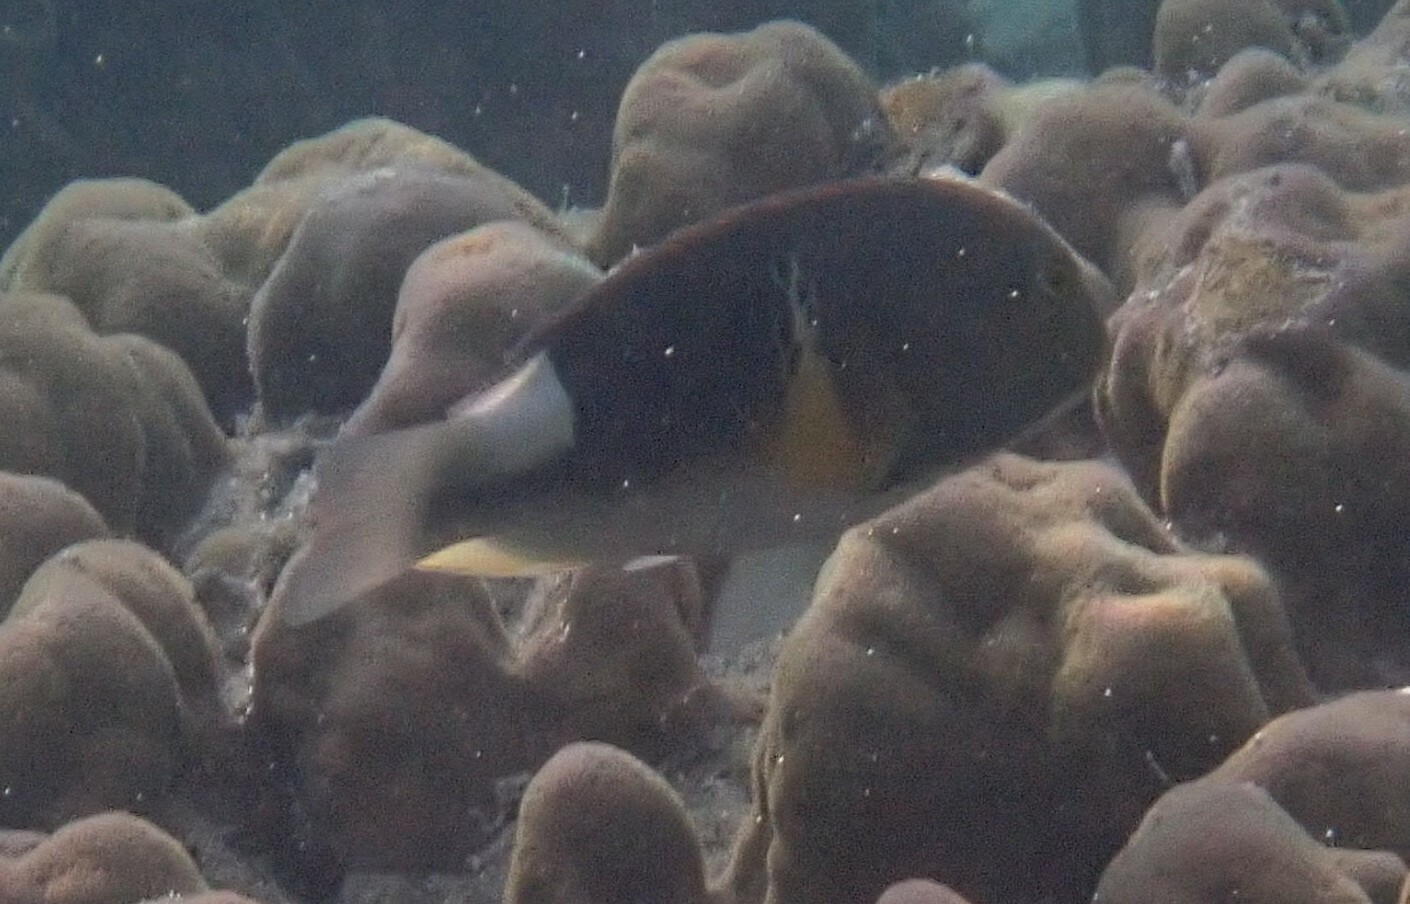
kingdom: Animalia
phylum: Chordata
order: Perciformes
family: Labridae
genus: Choerodon
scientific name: Choerodon anchorago
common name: Anchor tuskfish
